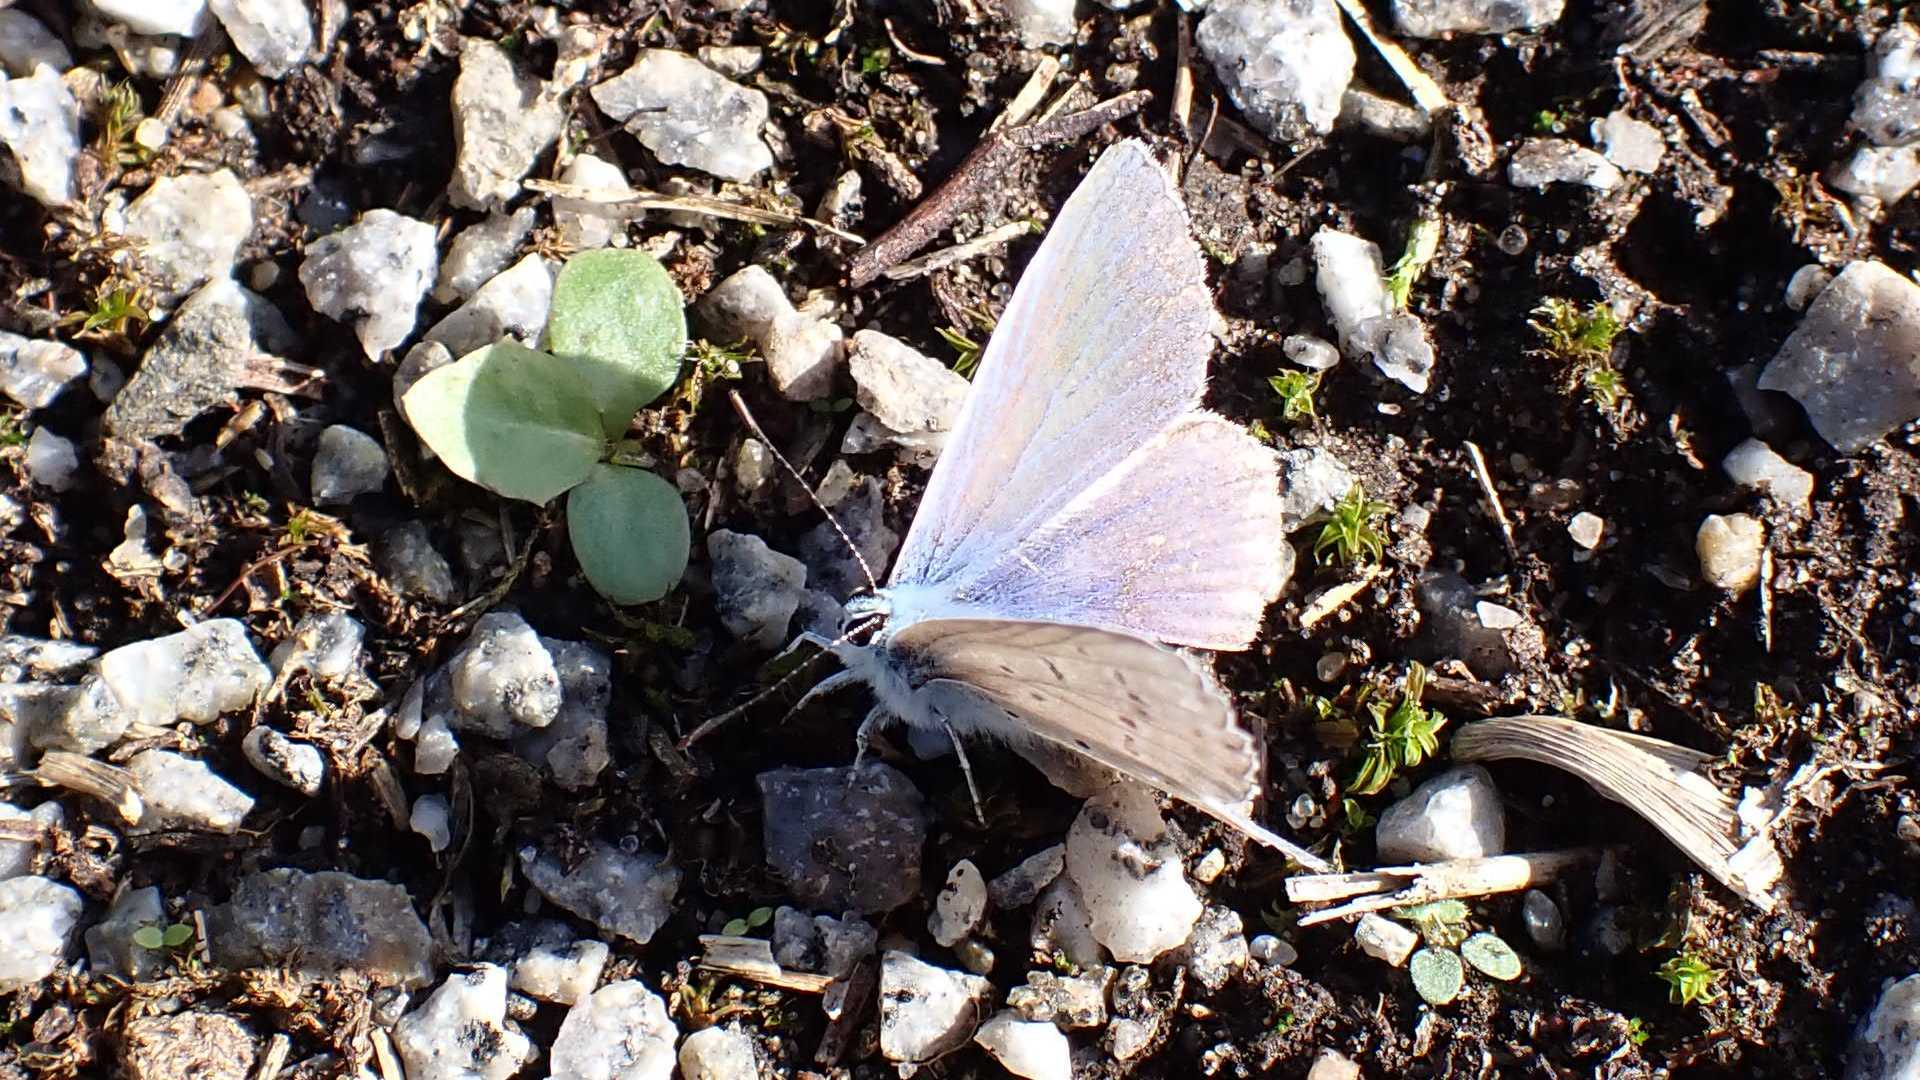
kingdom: Animalia
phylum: Arthropoda
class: Insecta
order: Lepidoptera
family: Lycaenidae
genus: Polyommatus
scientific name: Polyommatus icarus
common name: Common blue
